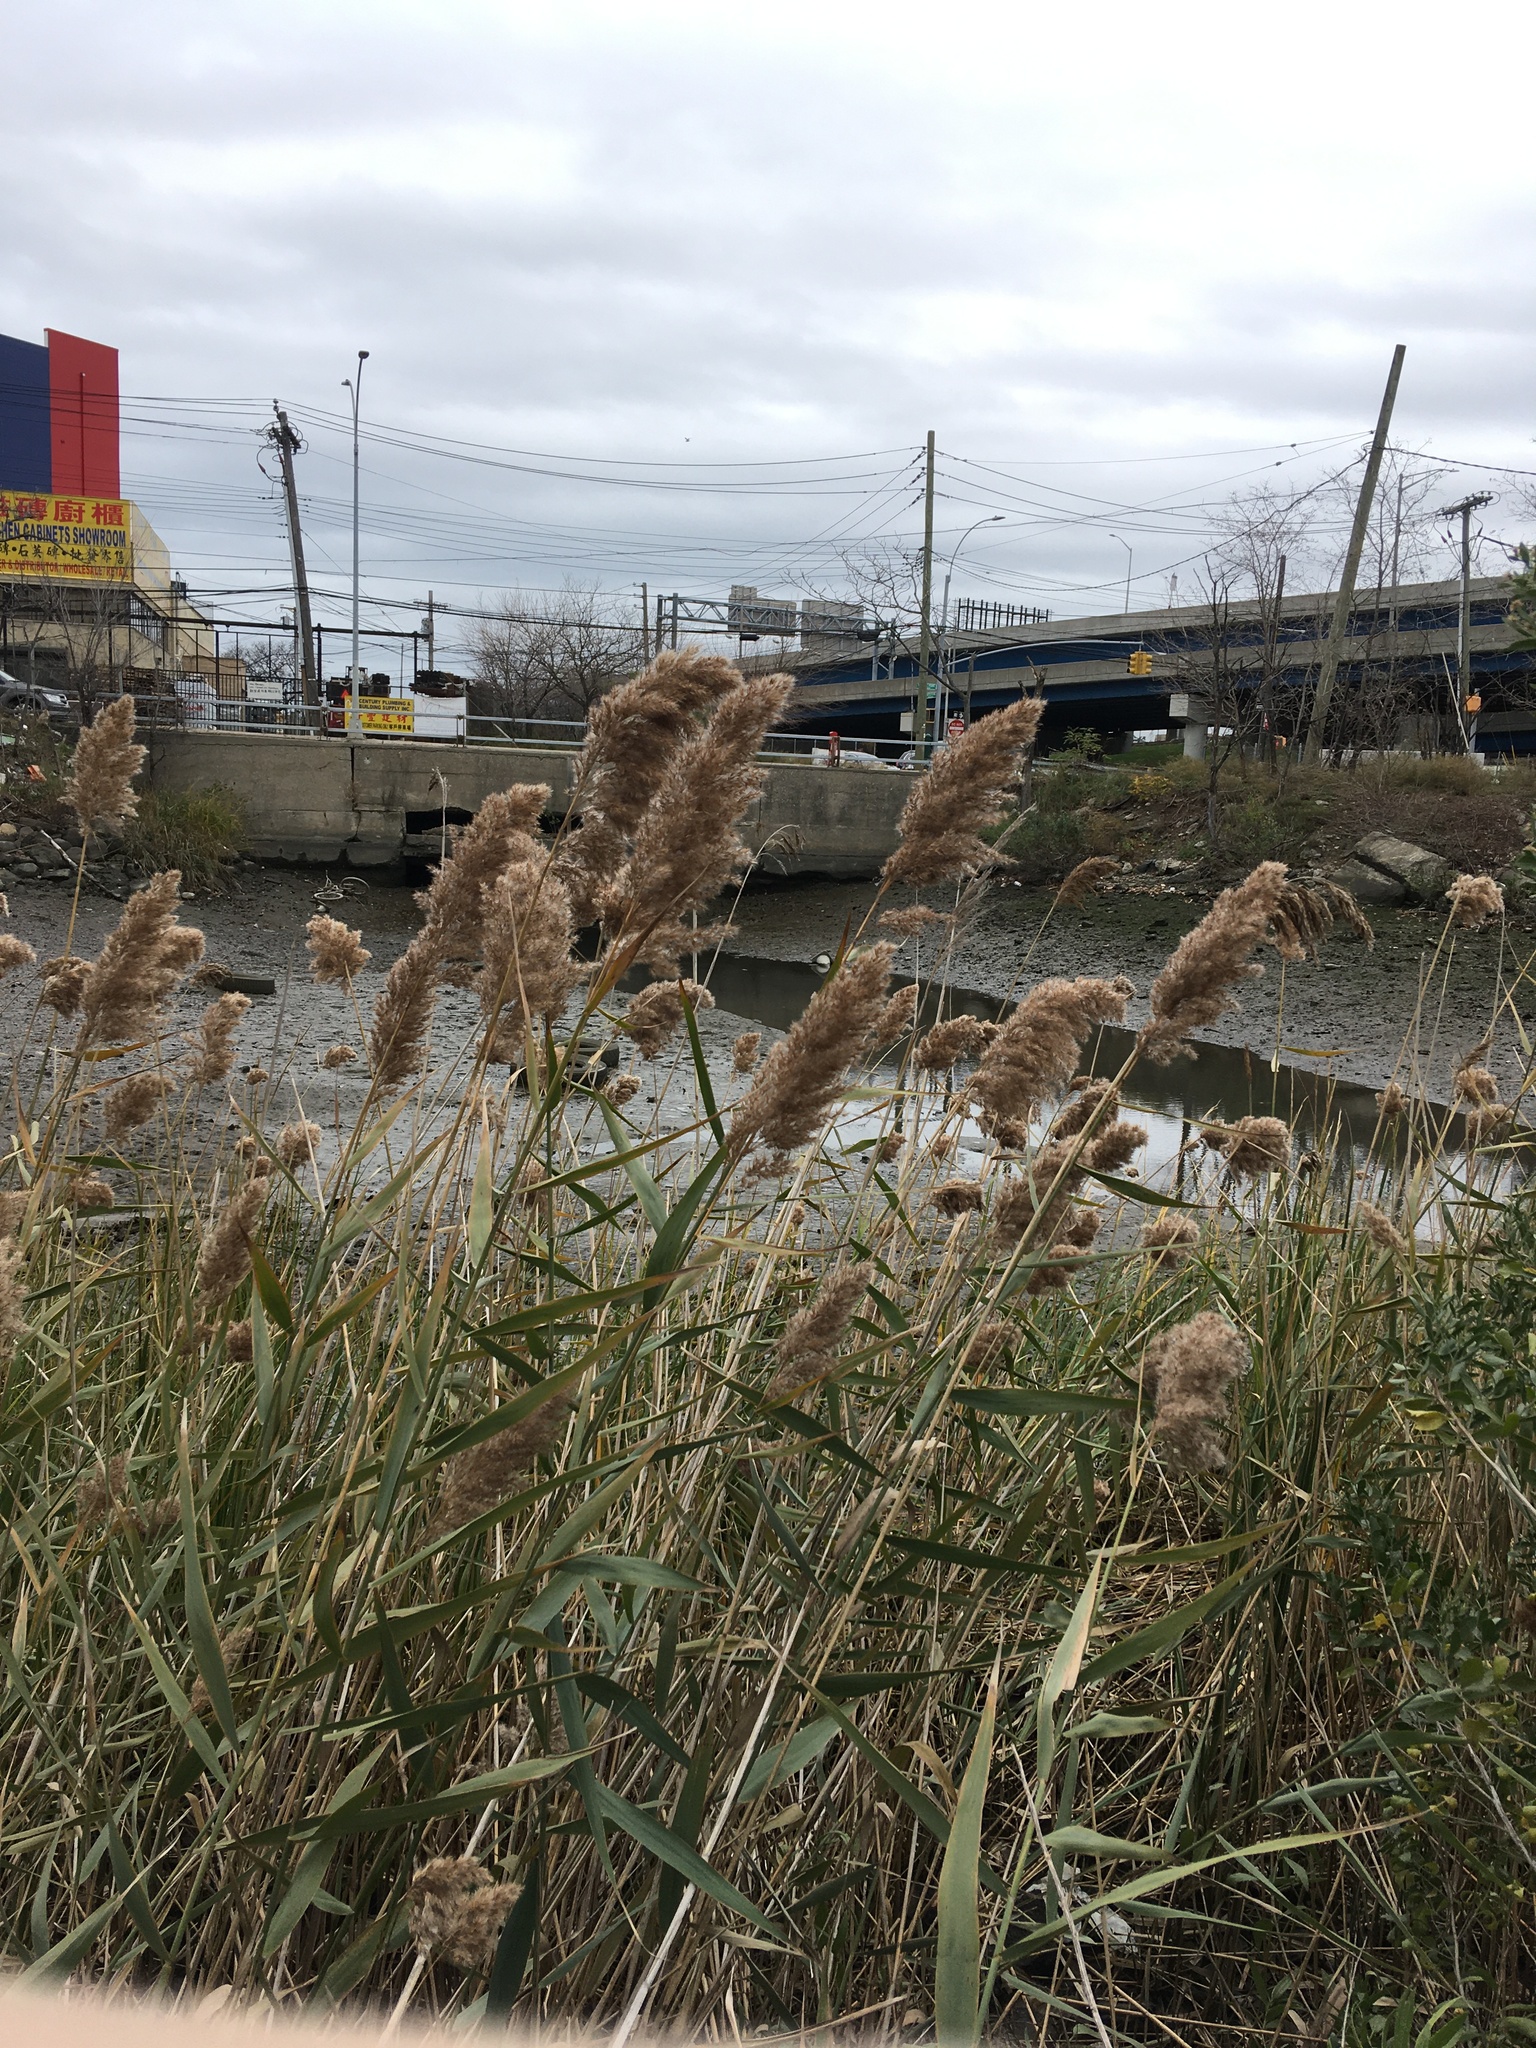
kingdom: Plantae
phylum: Tracheophyta
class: Liliopsida
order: Poales
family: Poaceae
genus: Phragmites
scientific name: Phragmites australis
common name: Common reed
